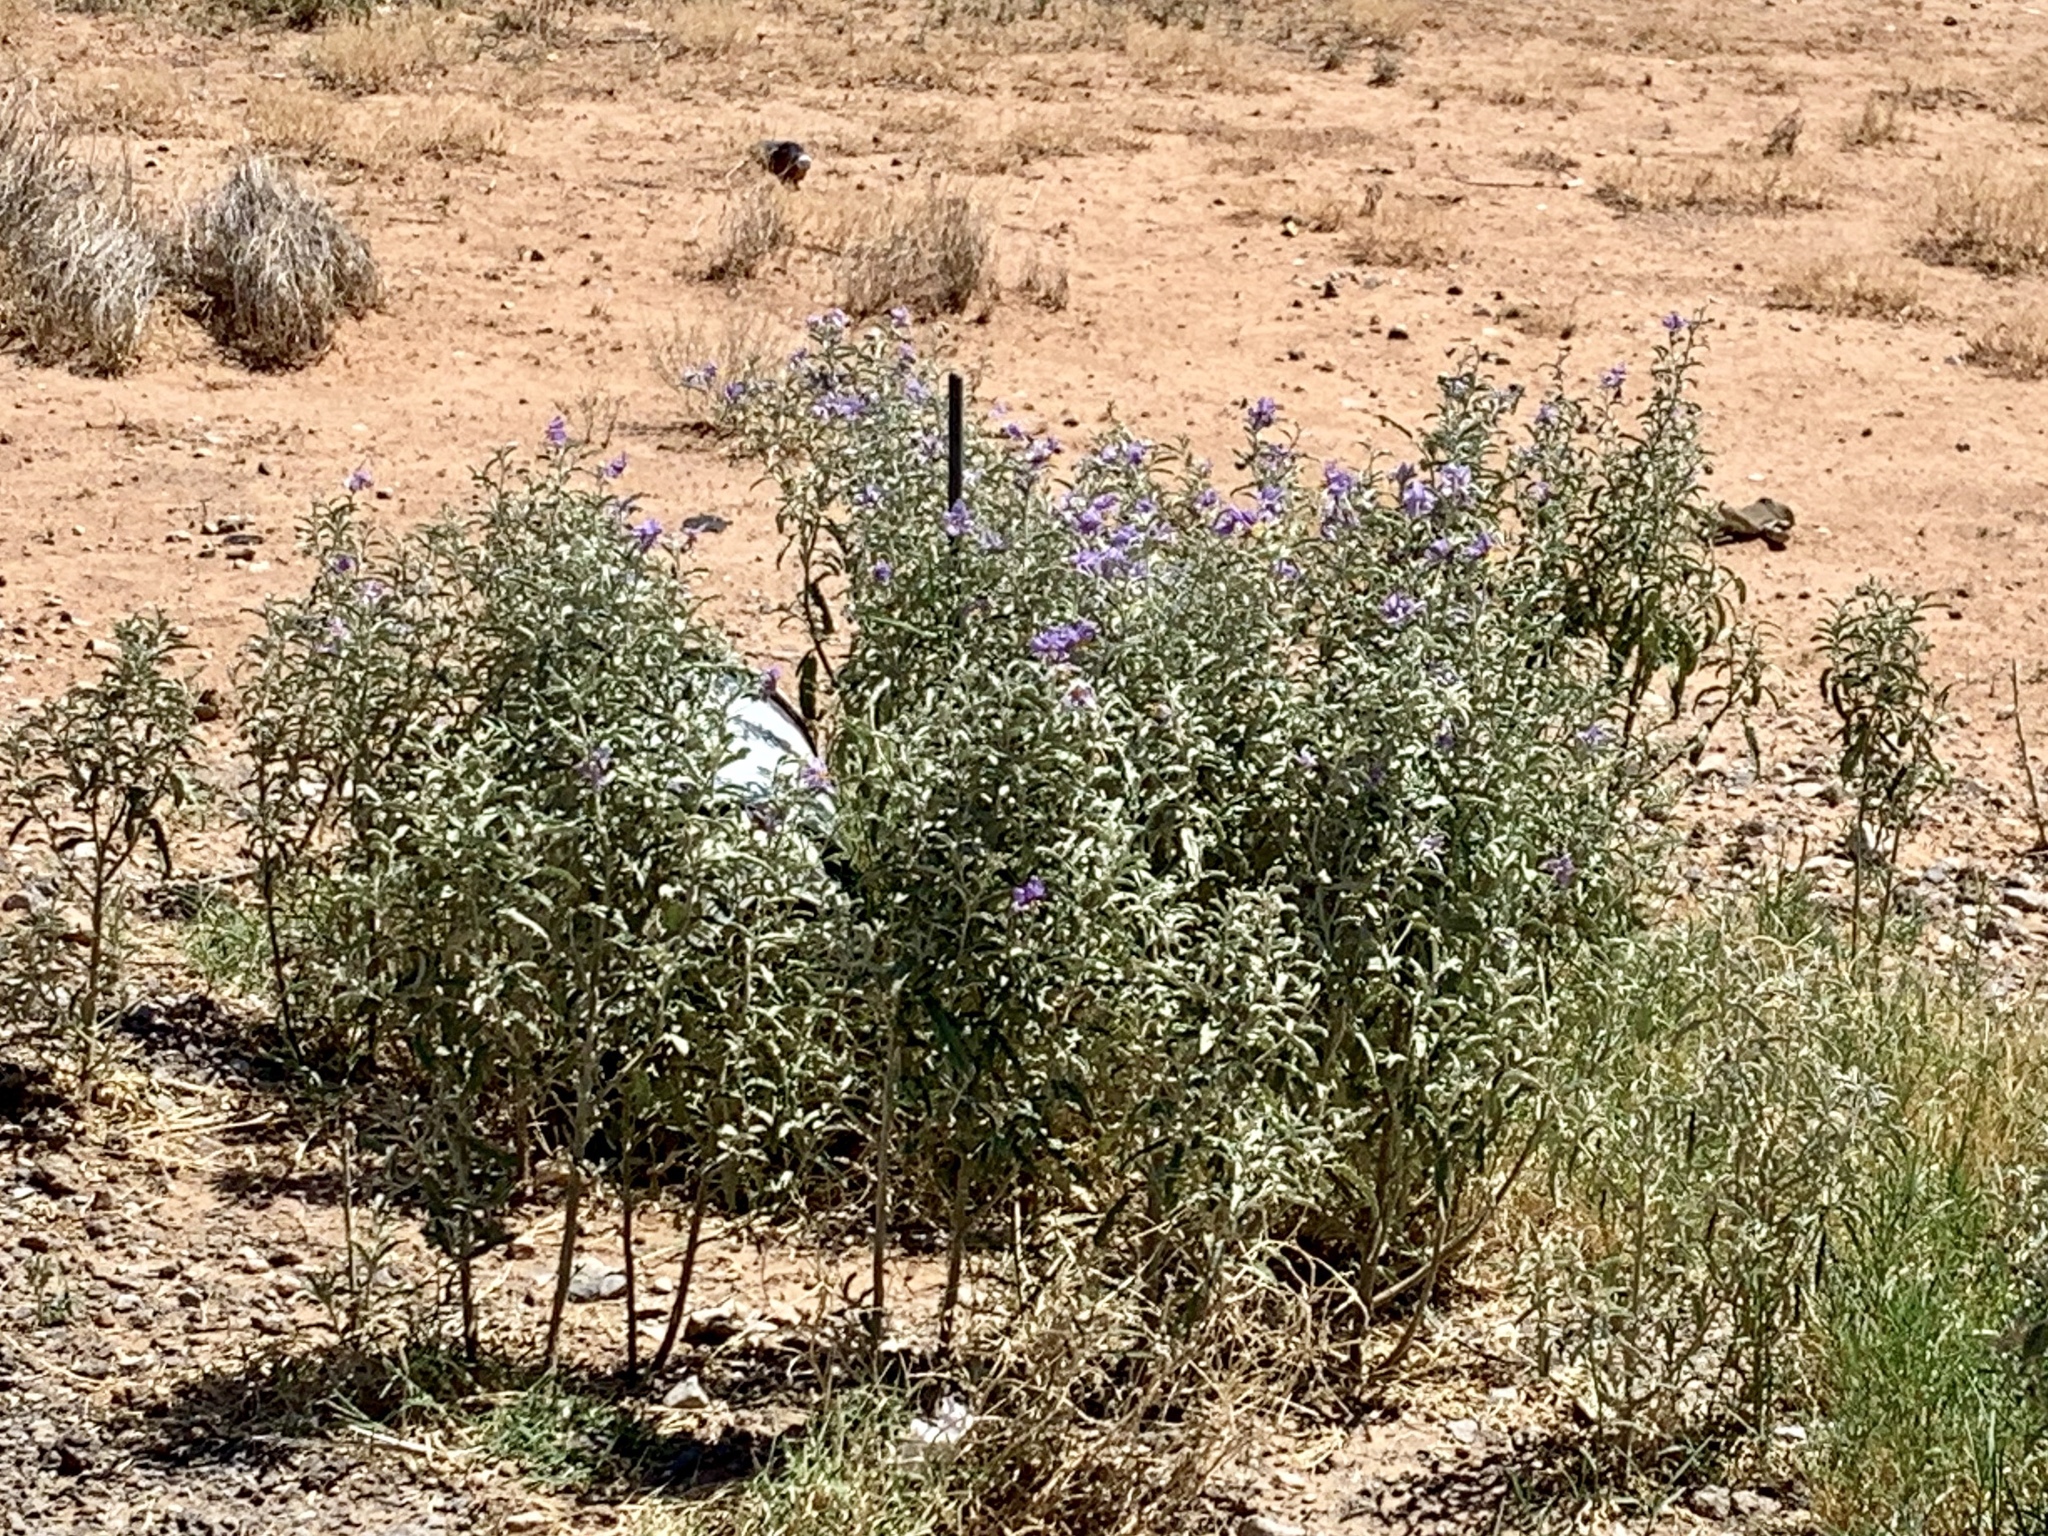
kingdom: Plantae
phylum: Tracheophyta
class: Magnoliopsida
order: Solanales
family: Solanaceae
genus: Solanum
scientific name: Solanum elaeagnifolium
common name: Silverleaf nightshade
